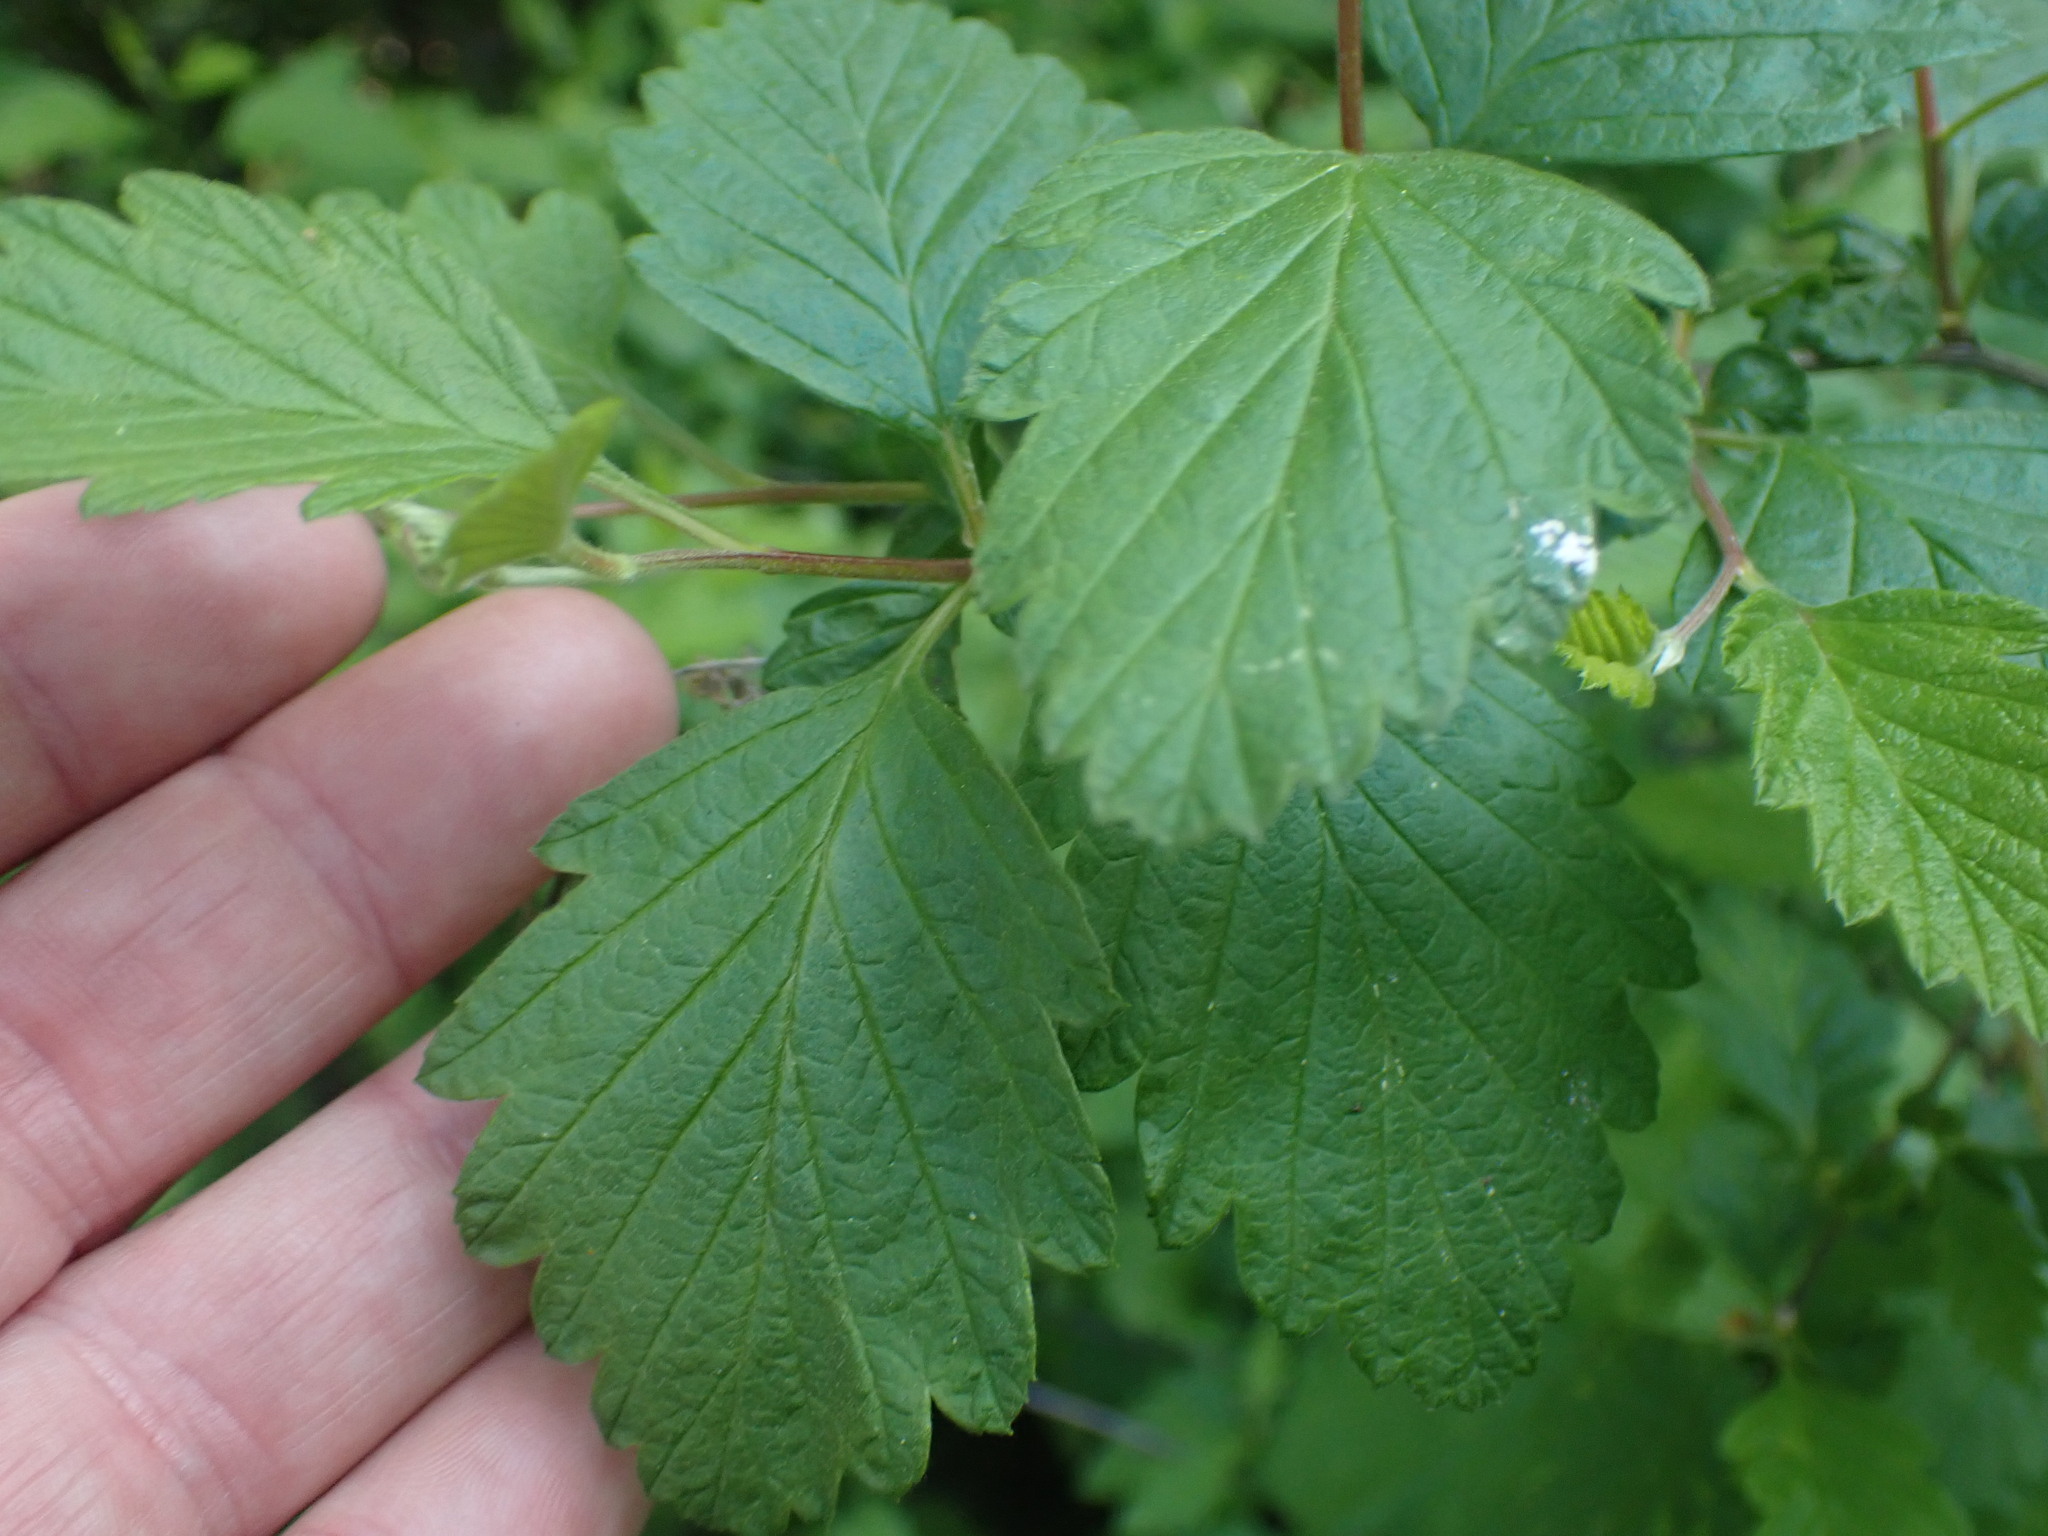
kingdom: Plantae
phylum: Tracheophyta
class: Magnoliopsida
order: Rosales
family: Rosaceae
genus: Holodiscus
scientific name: Holodiscus discolor
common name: Oceanspray
